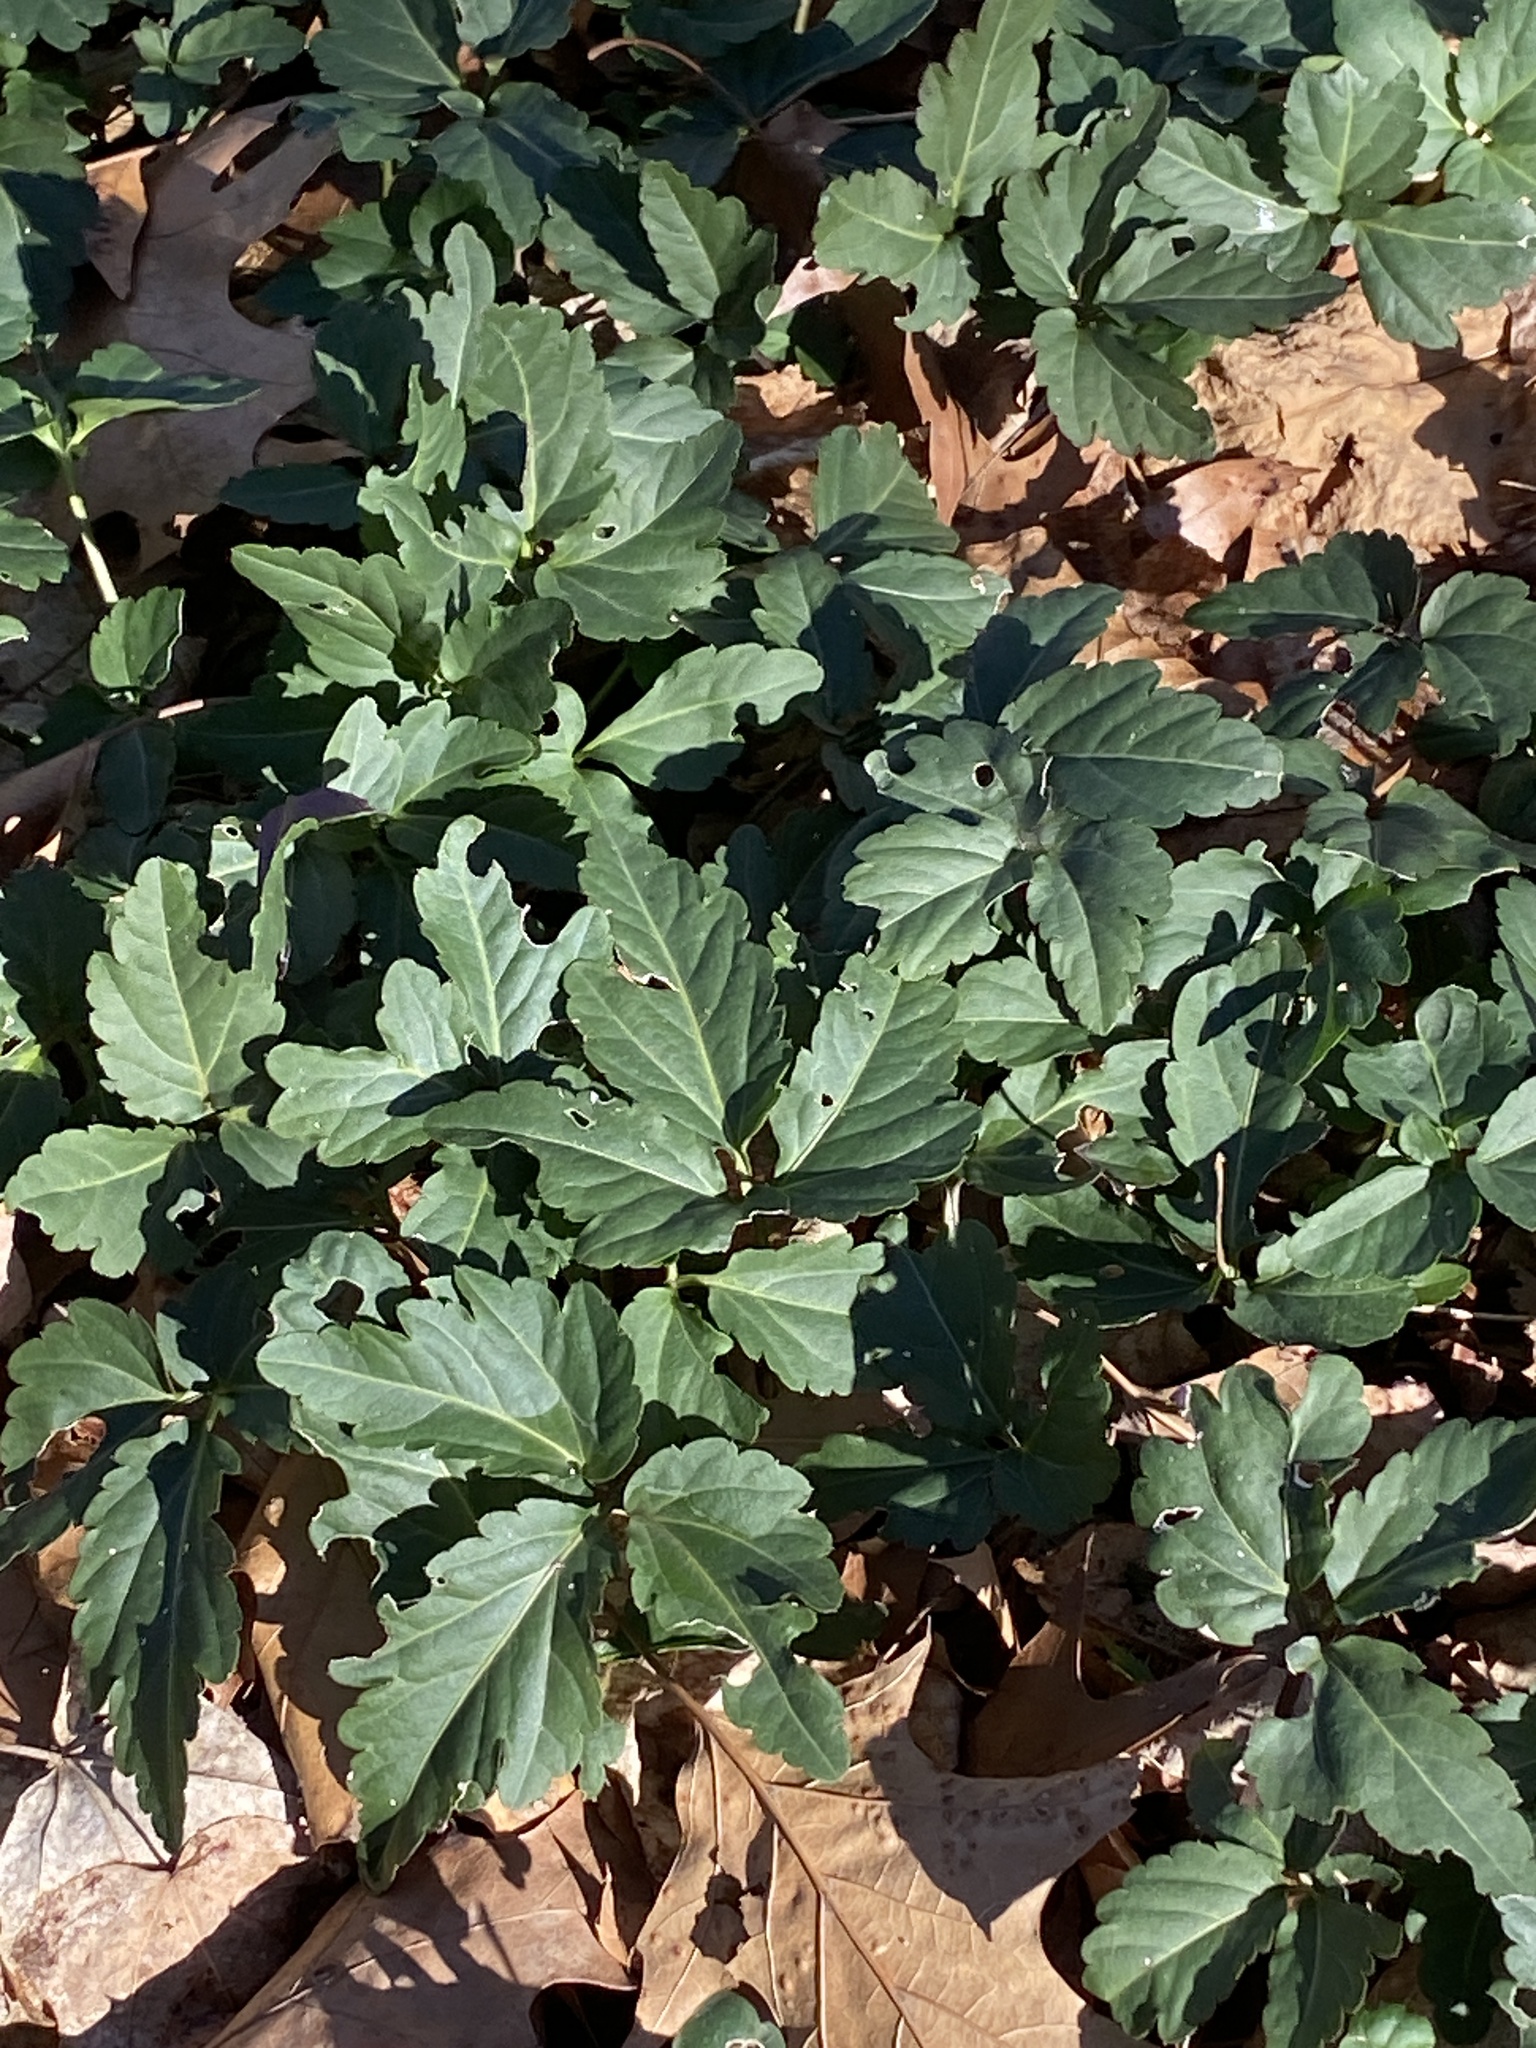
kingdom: Plantae
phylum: Tracheophyta
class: Magnoliopsida
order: Brassicales
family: Brassicaceae
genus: Cardamine
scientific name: Cardamine diphylla
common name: Broad-leaved toothwort
